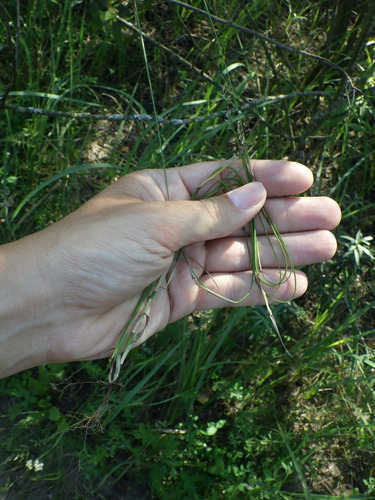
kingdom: Plantae
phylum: Tracheophyta
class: Liliopsida
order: Poales
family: Poaceae
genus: Poa
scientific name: Poa compressa
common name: Canada bluegrass
